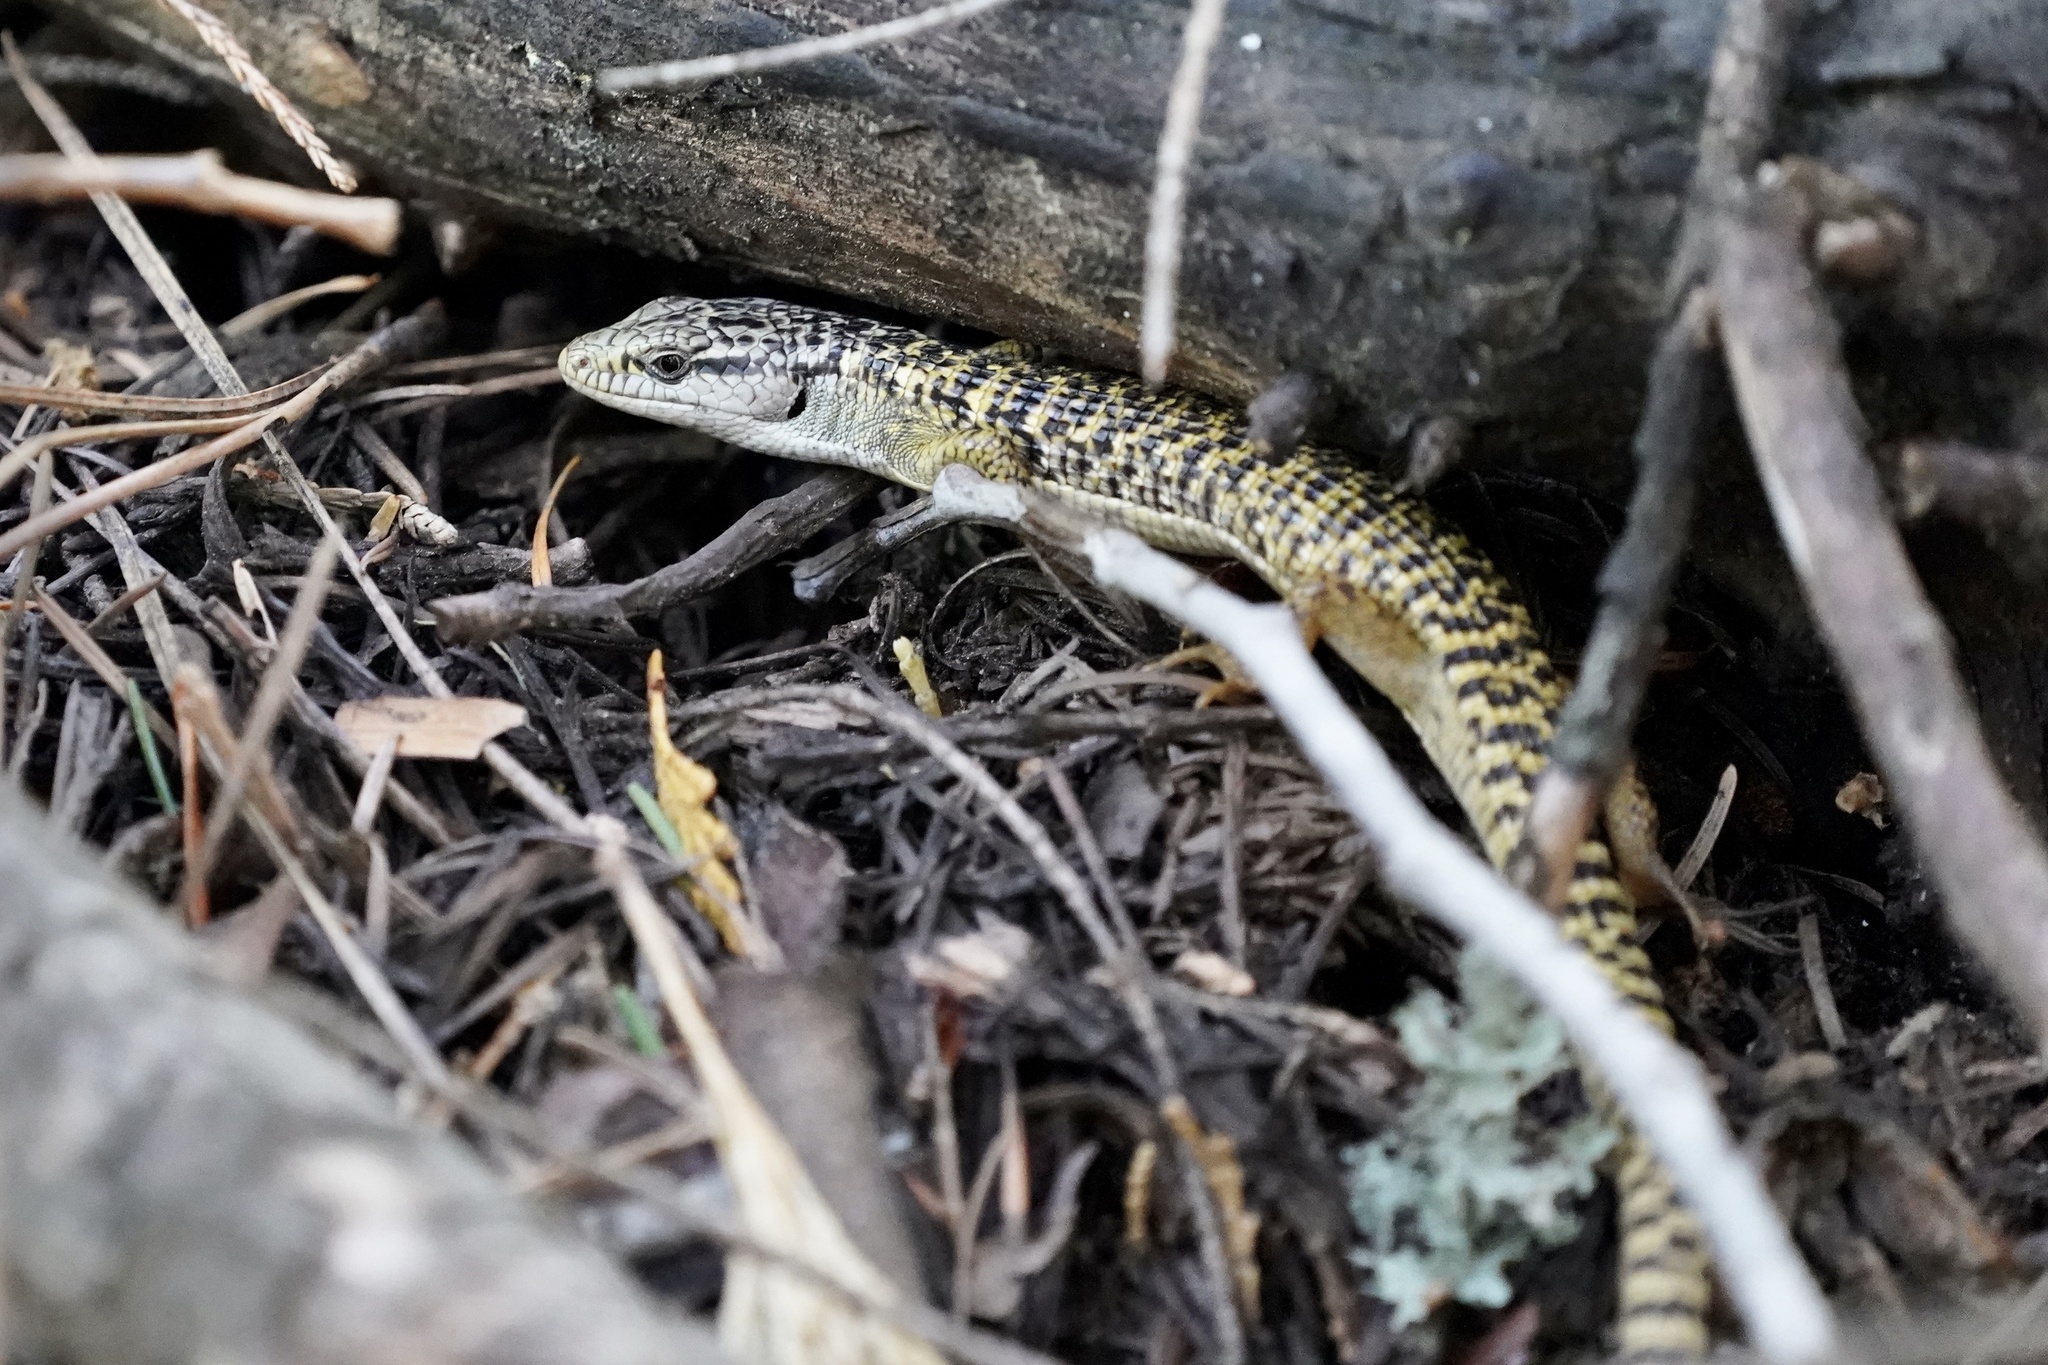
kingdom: Animalia
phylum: Chordata
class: Squamata
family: Anguidae
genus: Elgaria
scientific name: Elgaria coerulea
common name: Northern alligator lizard
